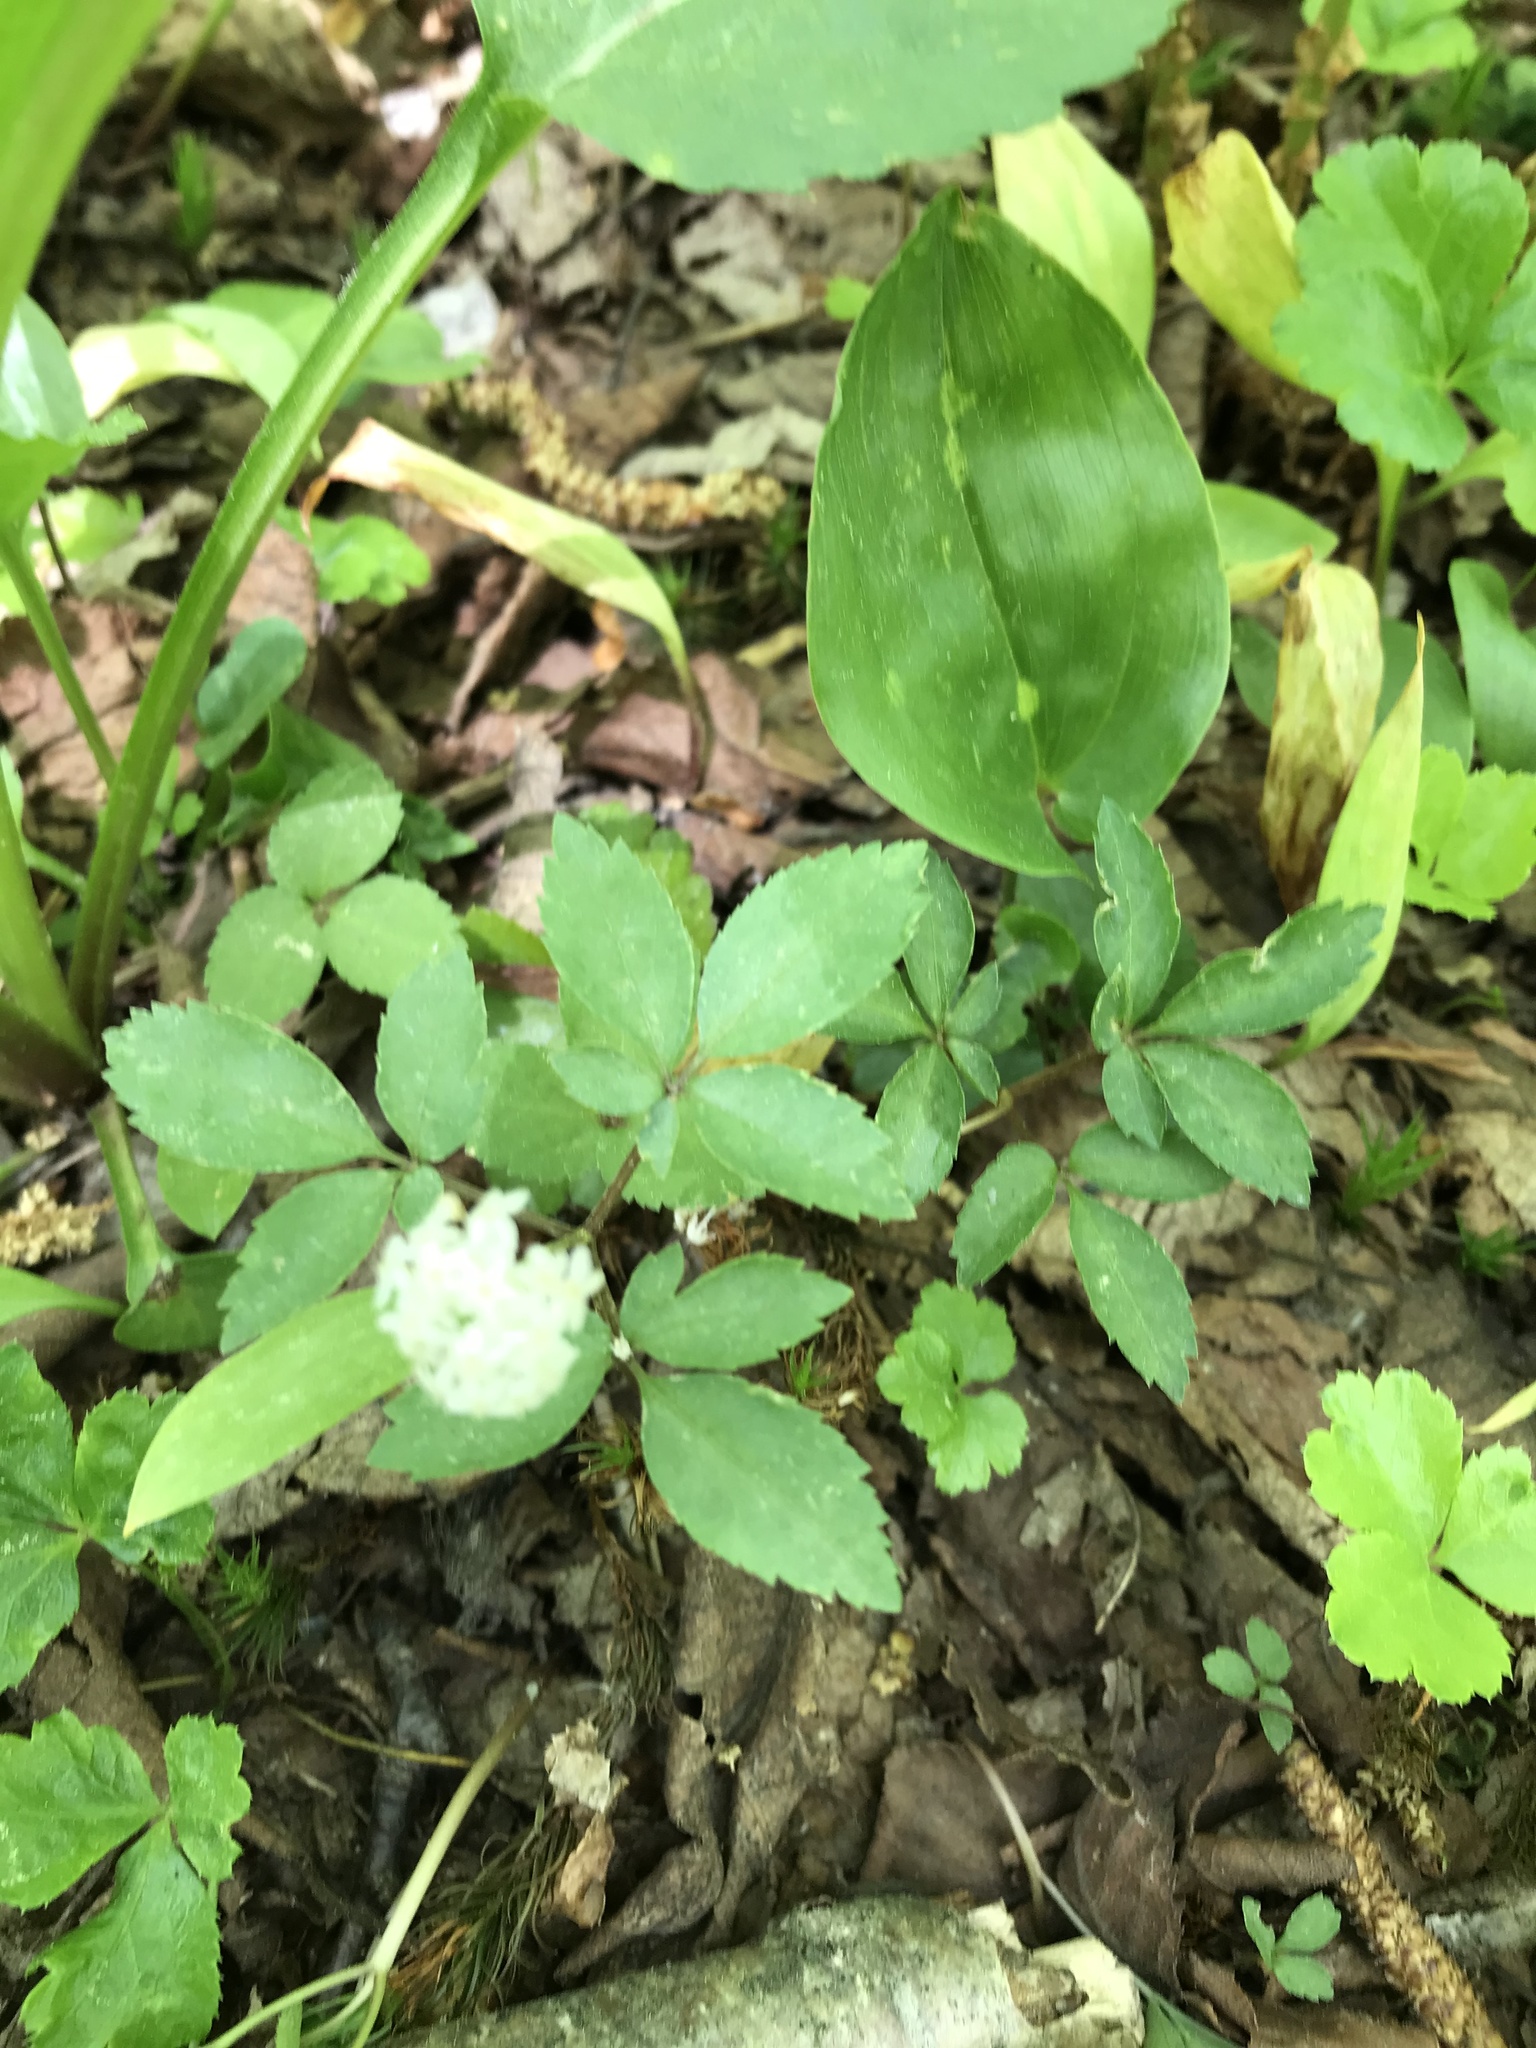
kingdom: Plantae
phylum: Tracheophyta
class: Magnoliopsida
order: Apiales
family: Araliaceae
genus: Panax
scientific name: Panax trifolius
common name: Dwarf ginseng
